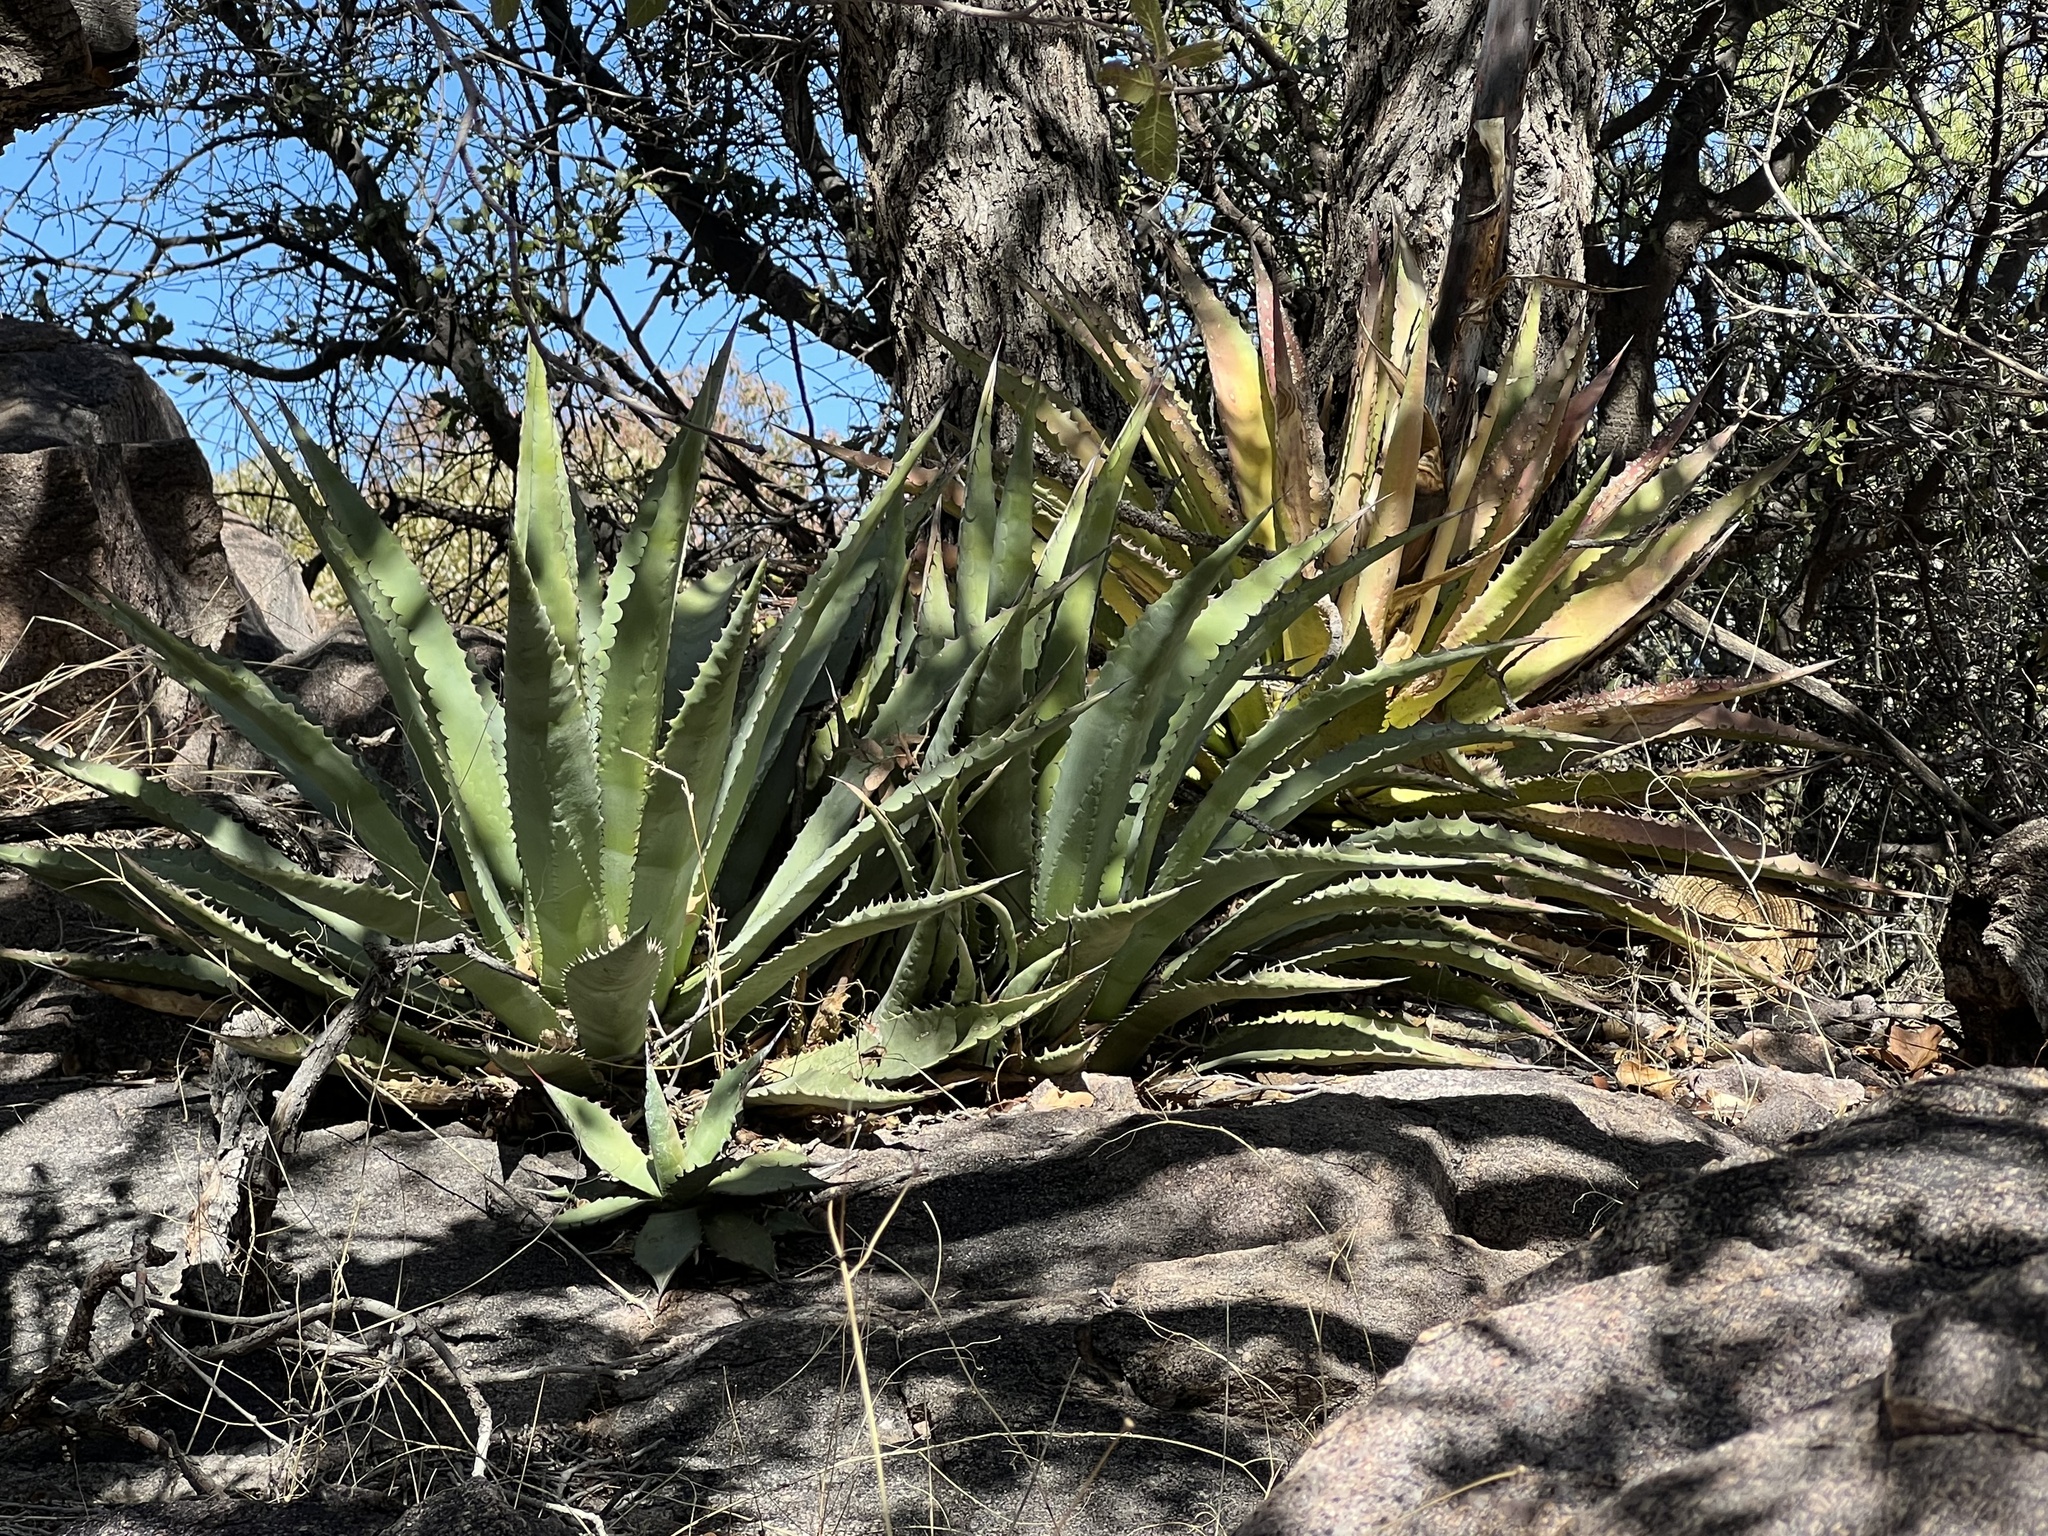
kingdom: Plantae
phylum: Tracheophyta
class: Liliopsida
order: Asparagales
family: Asparagaceae
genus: Agave
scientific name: Agave palmeri
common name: Palmer agave
